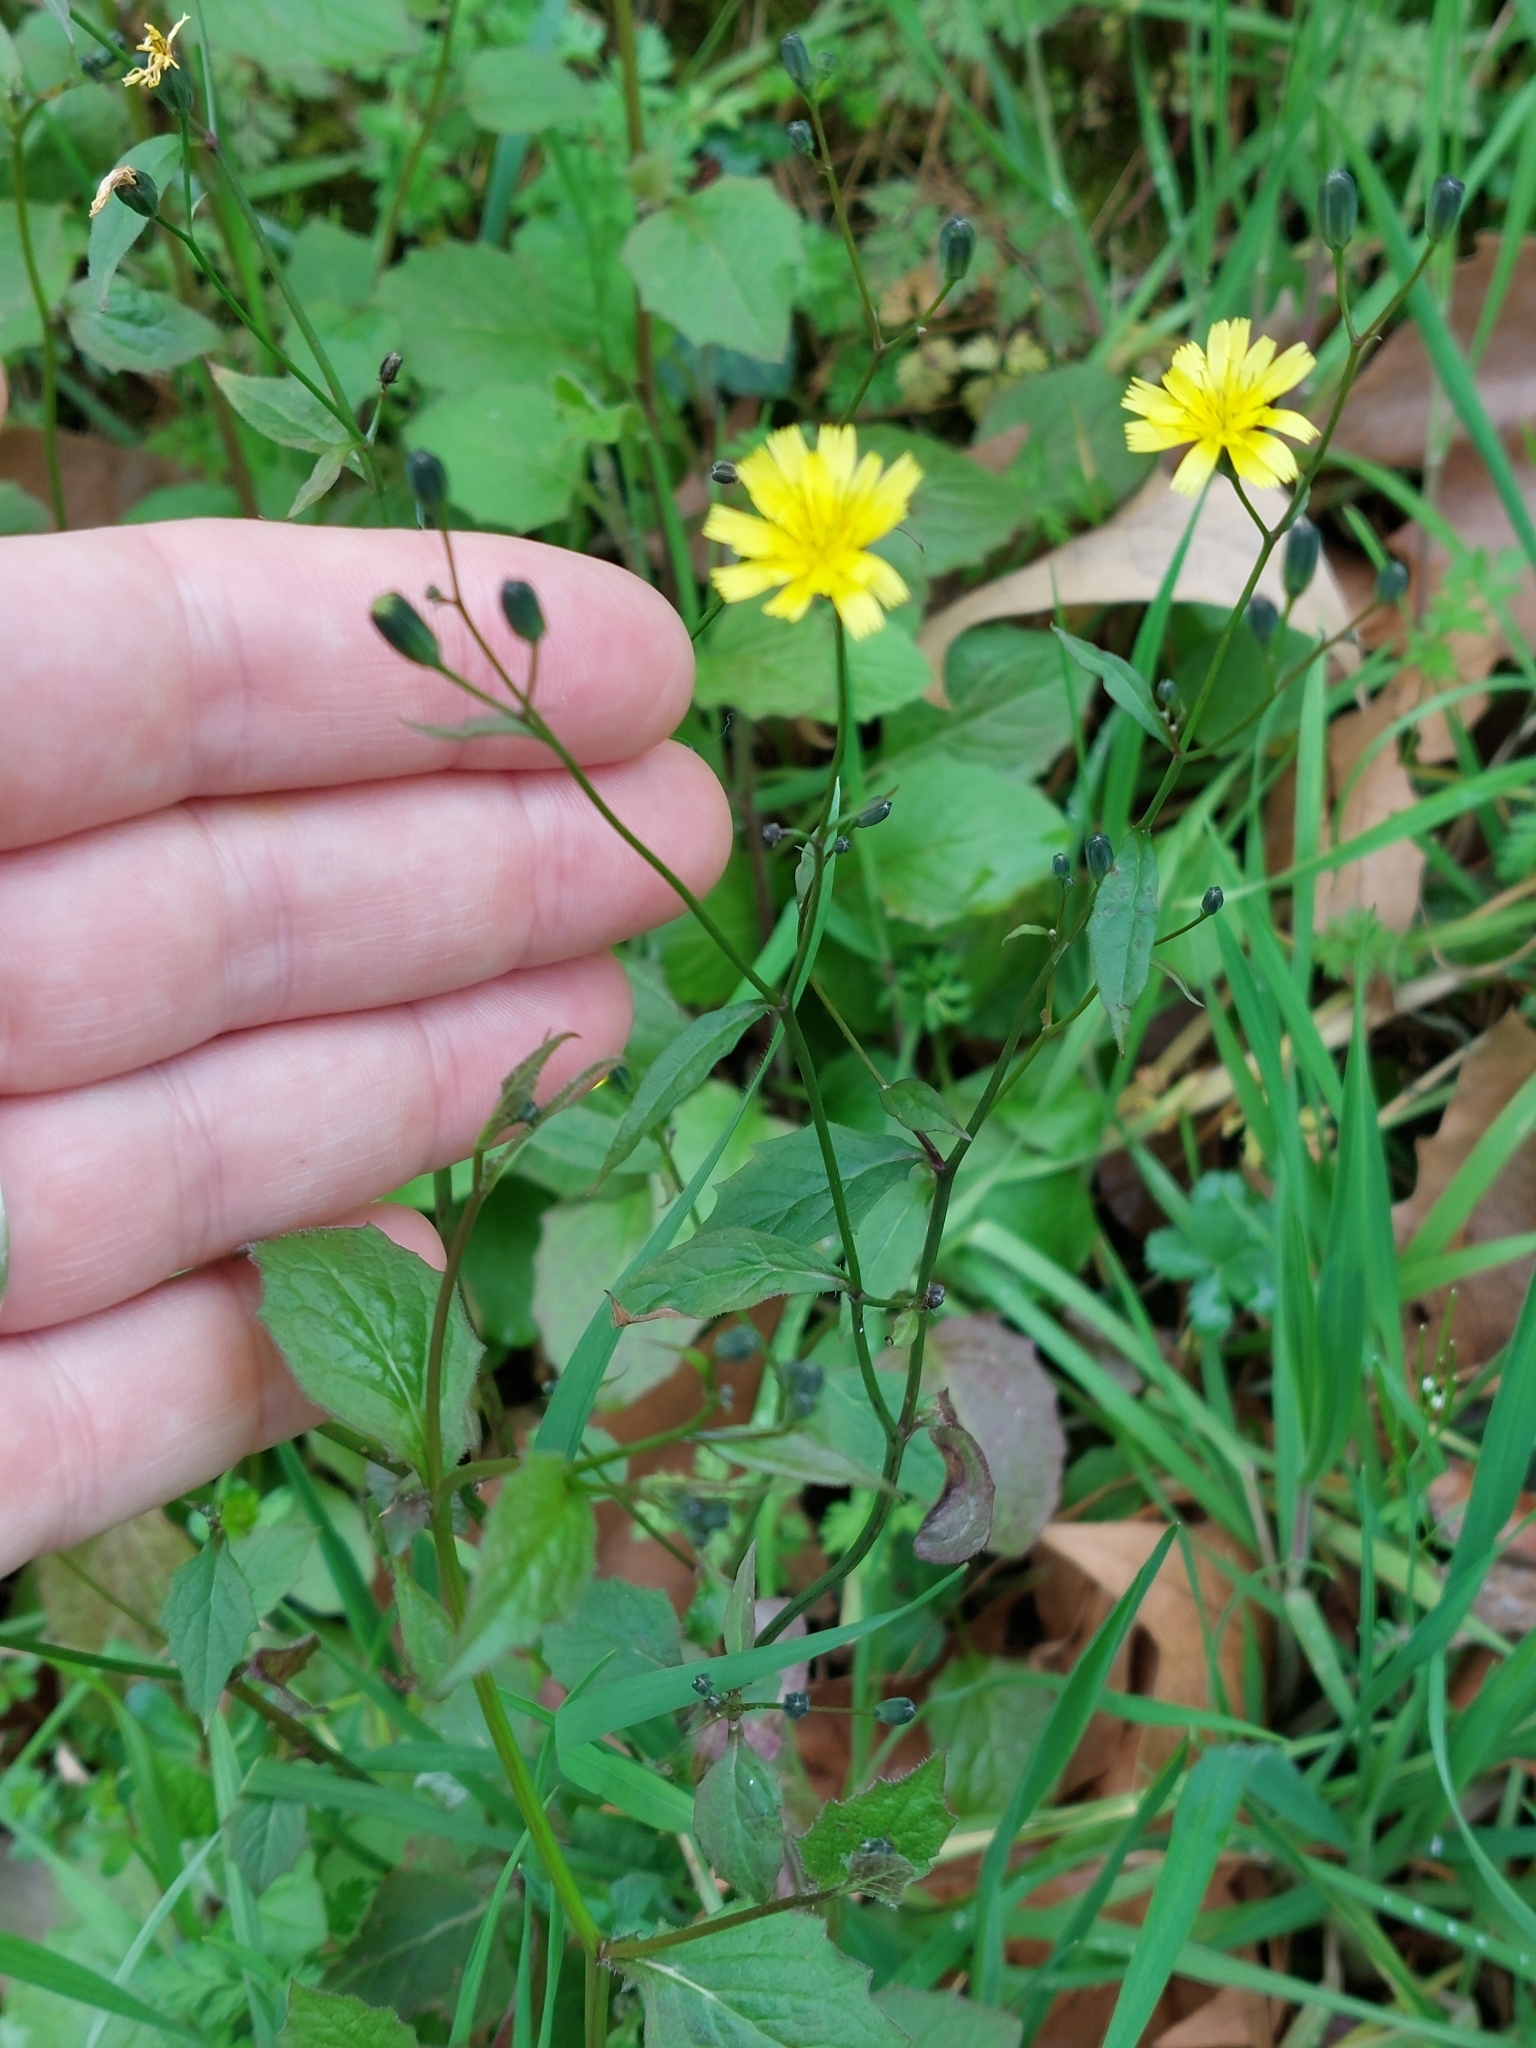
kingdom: Plantae
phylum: Tracheophyta
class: Magnoliopsida
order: Asterales
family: Asteraceae
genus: Lapsana
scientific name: Lapsana communis
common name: Nipplewort
